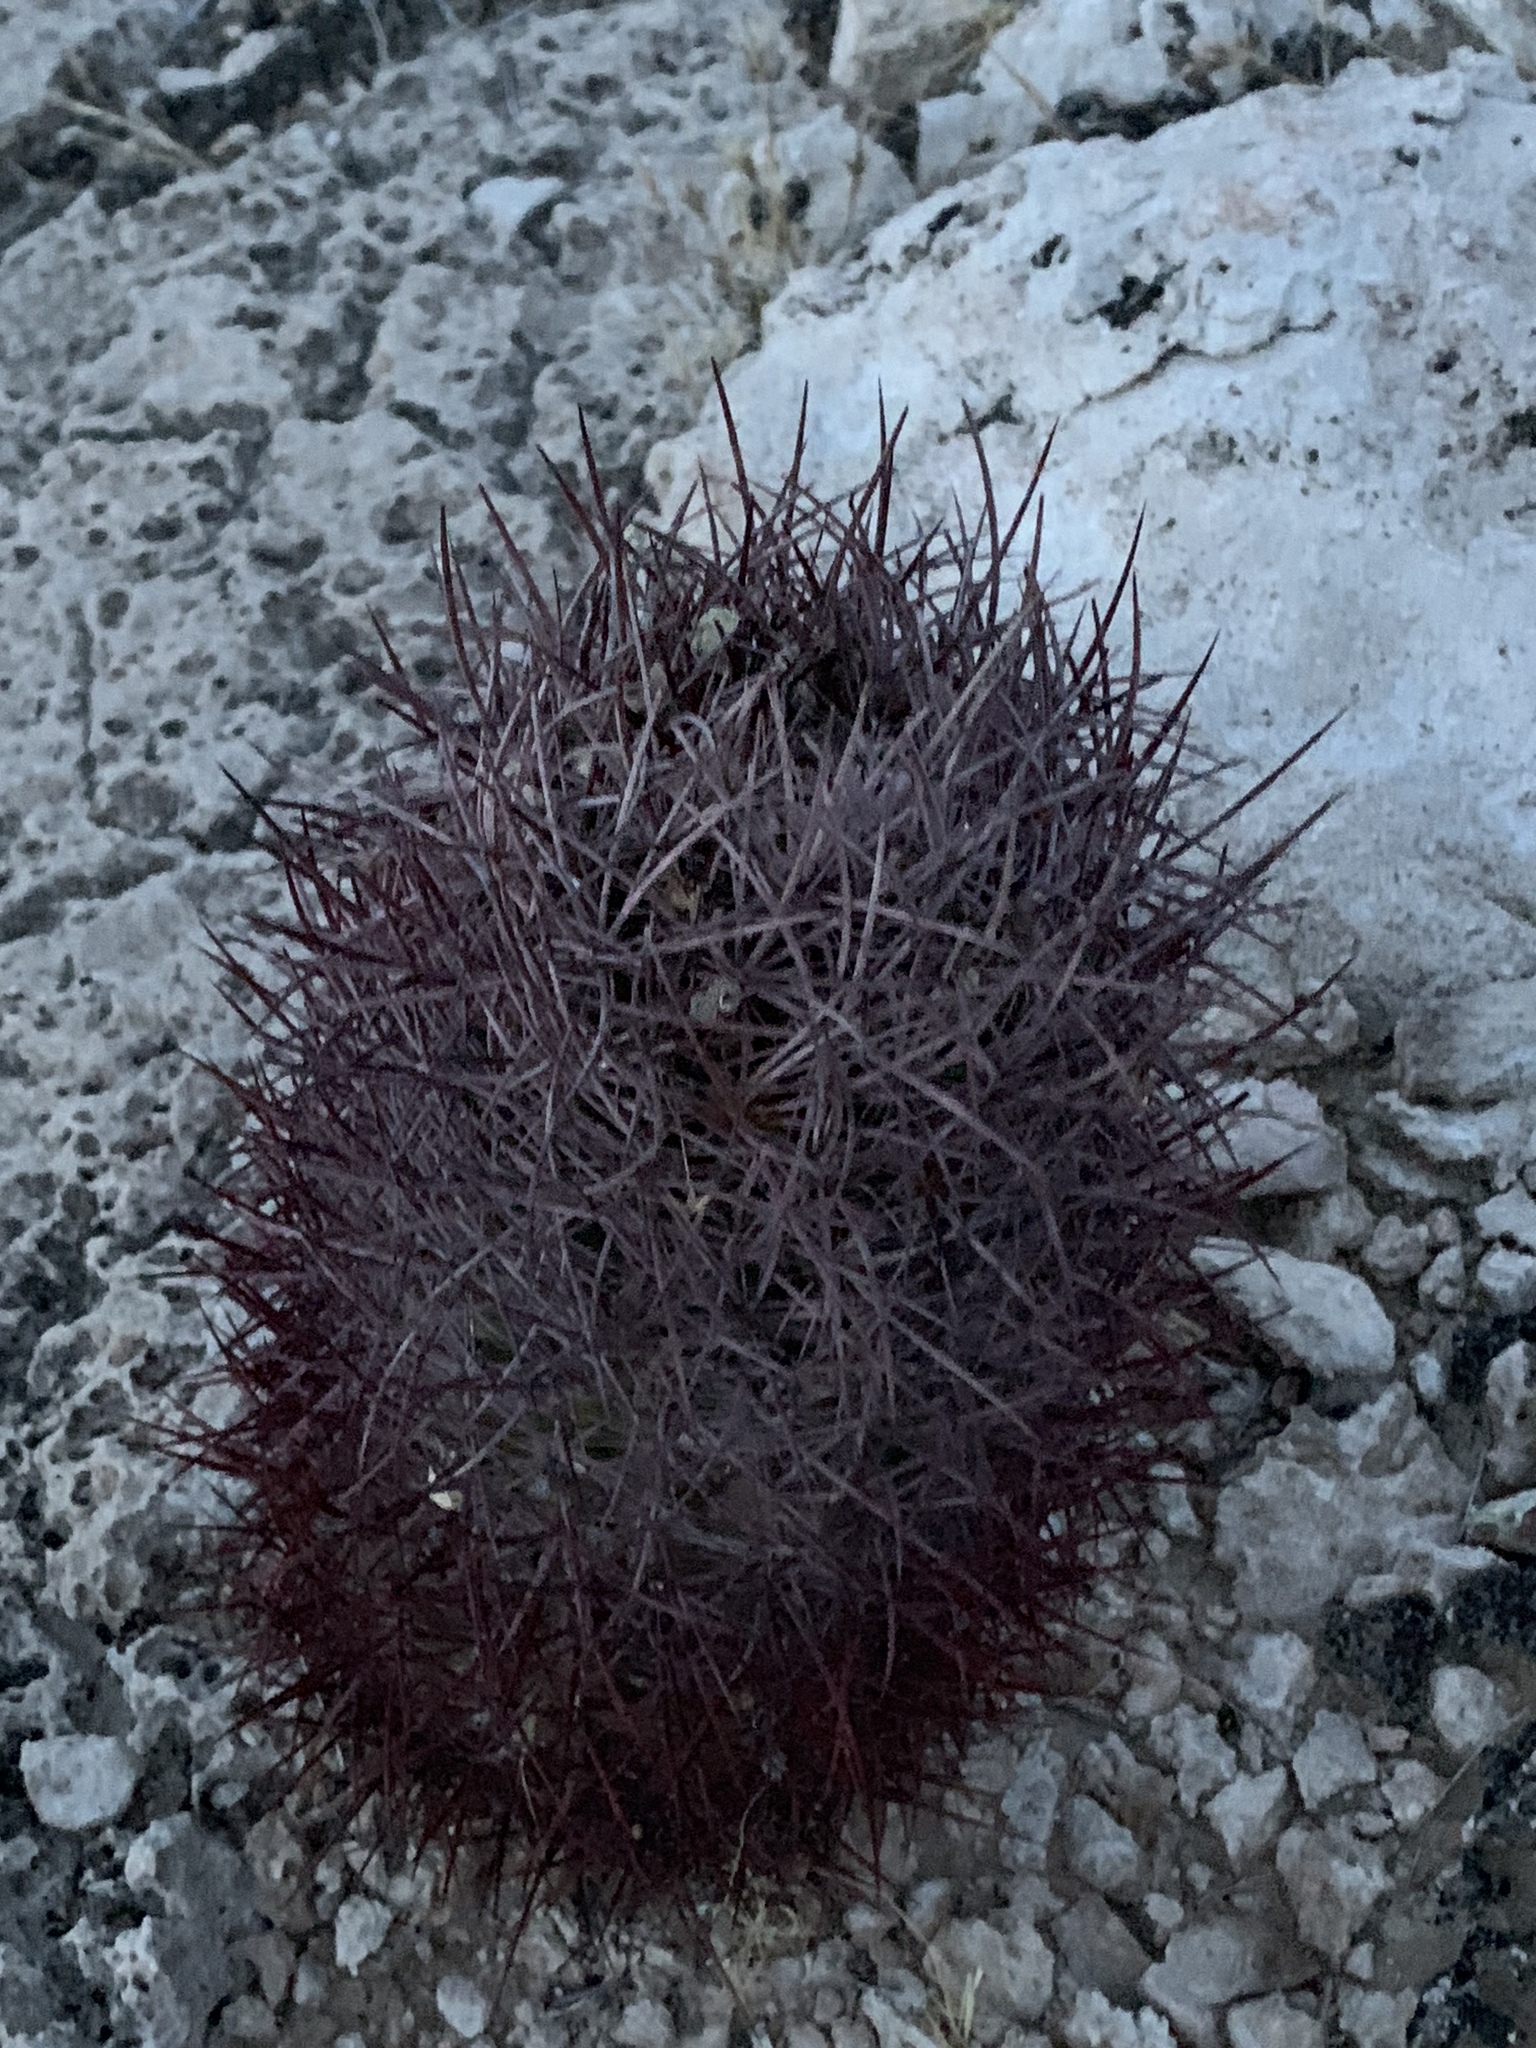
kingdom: Plantae
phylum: Tracheophyta
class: Magnoliopsida
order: Caryophyllales
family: Cactaceae
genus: Sclerocactus
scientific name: Sclerocactus johnsonii
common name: Eight-spine fishhook cactus
